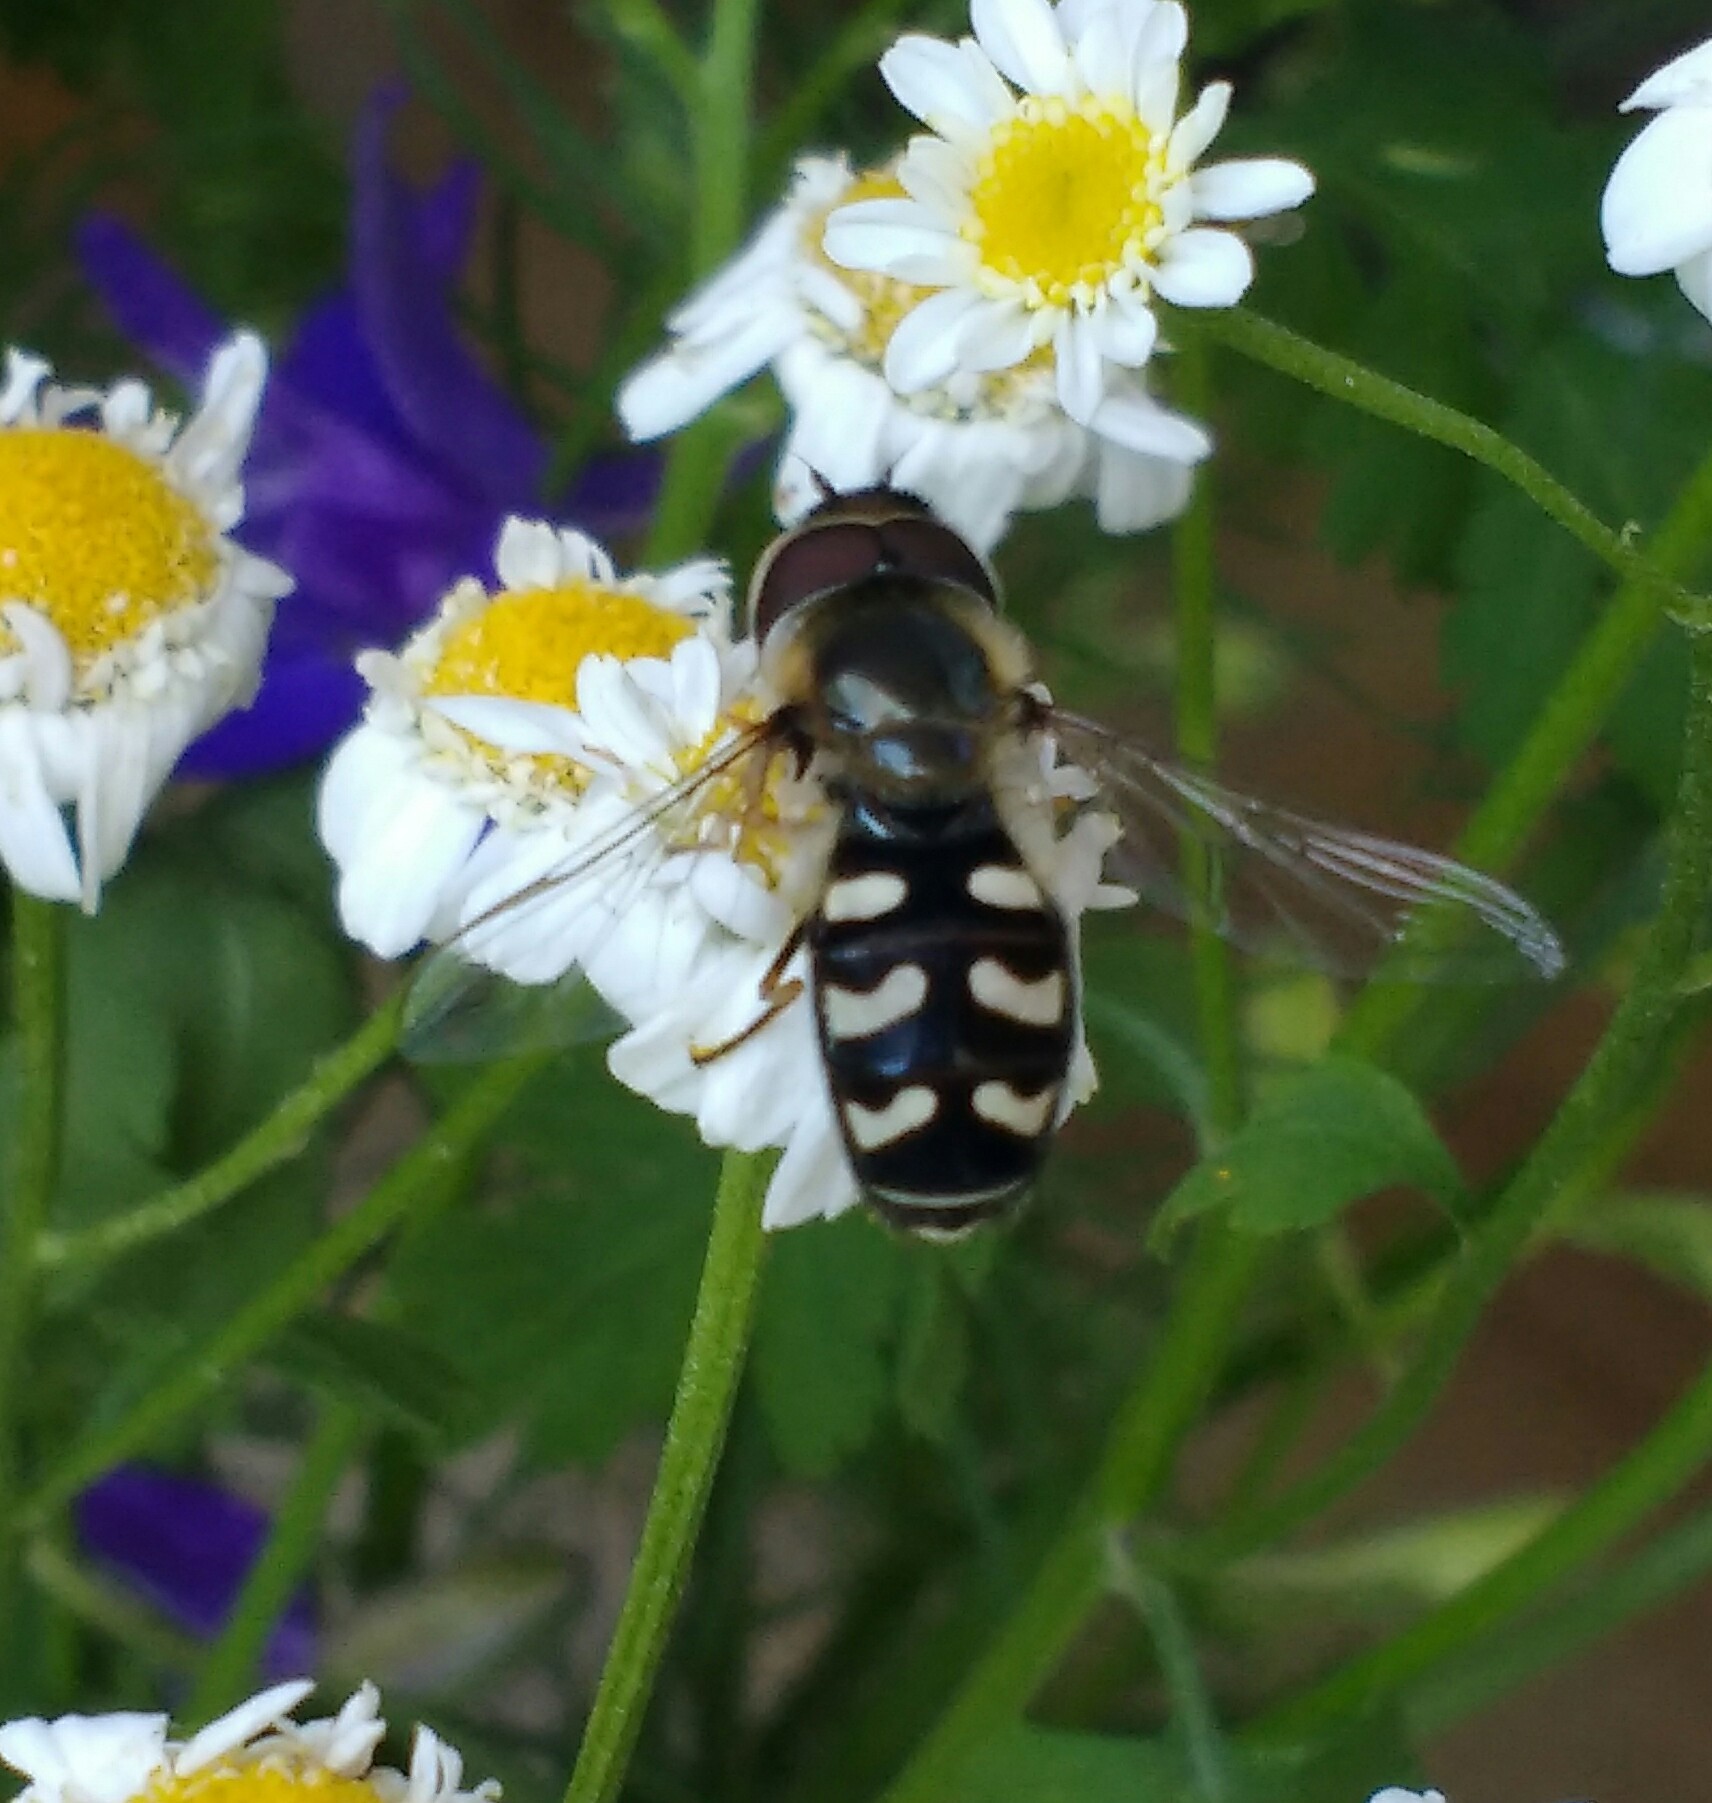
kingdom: Animalia
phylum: Arthropoda
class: Insecta
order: Diptera
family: Syrphidae
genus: Scaeva
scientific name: Scaeva pyrastri
